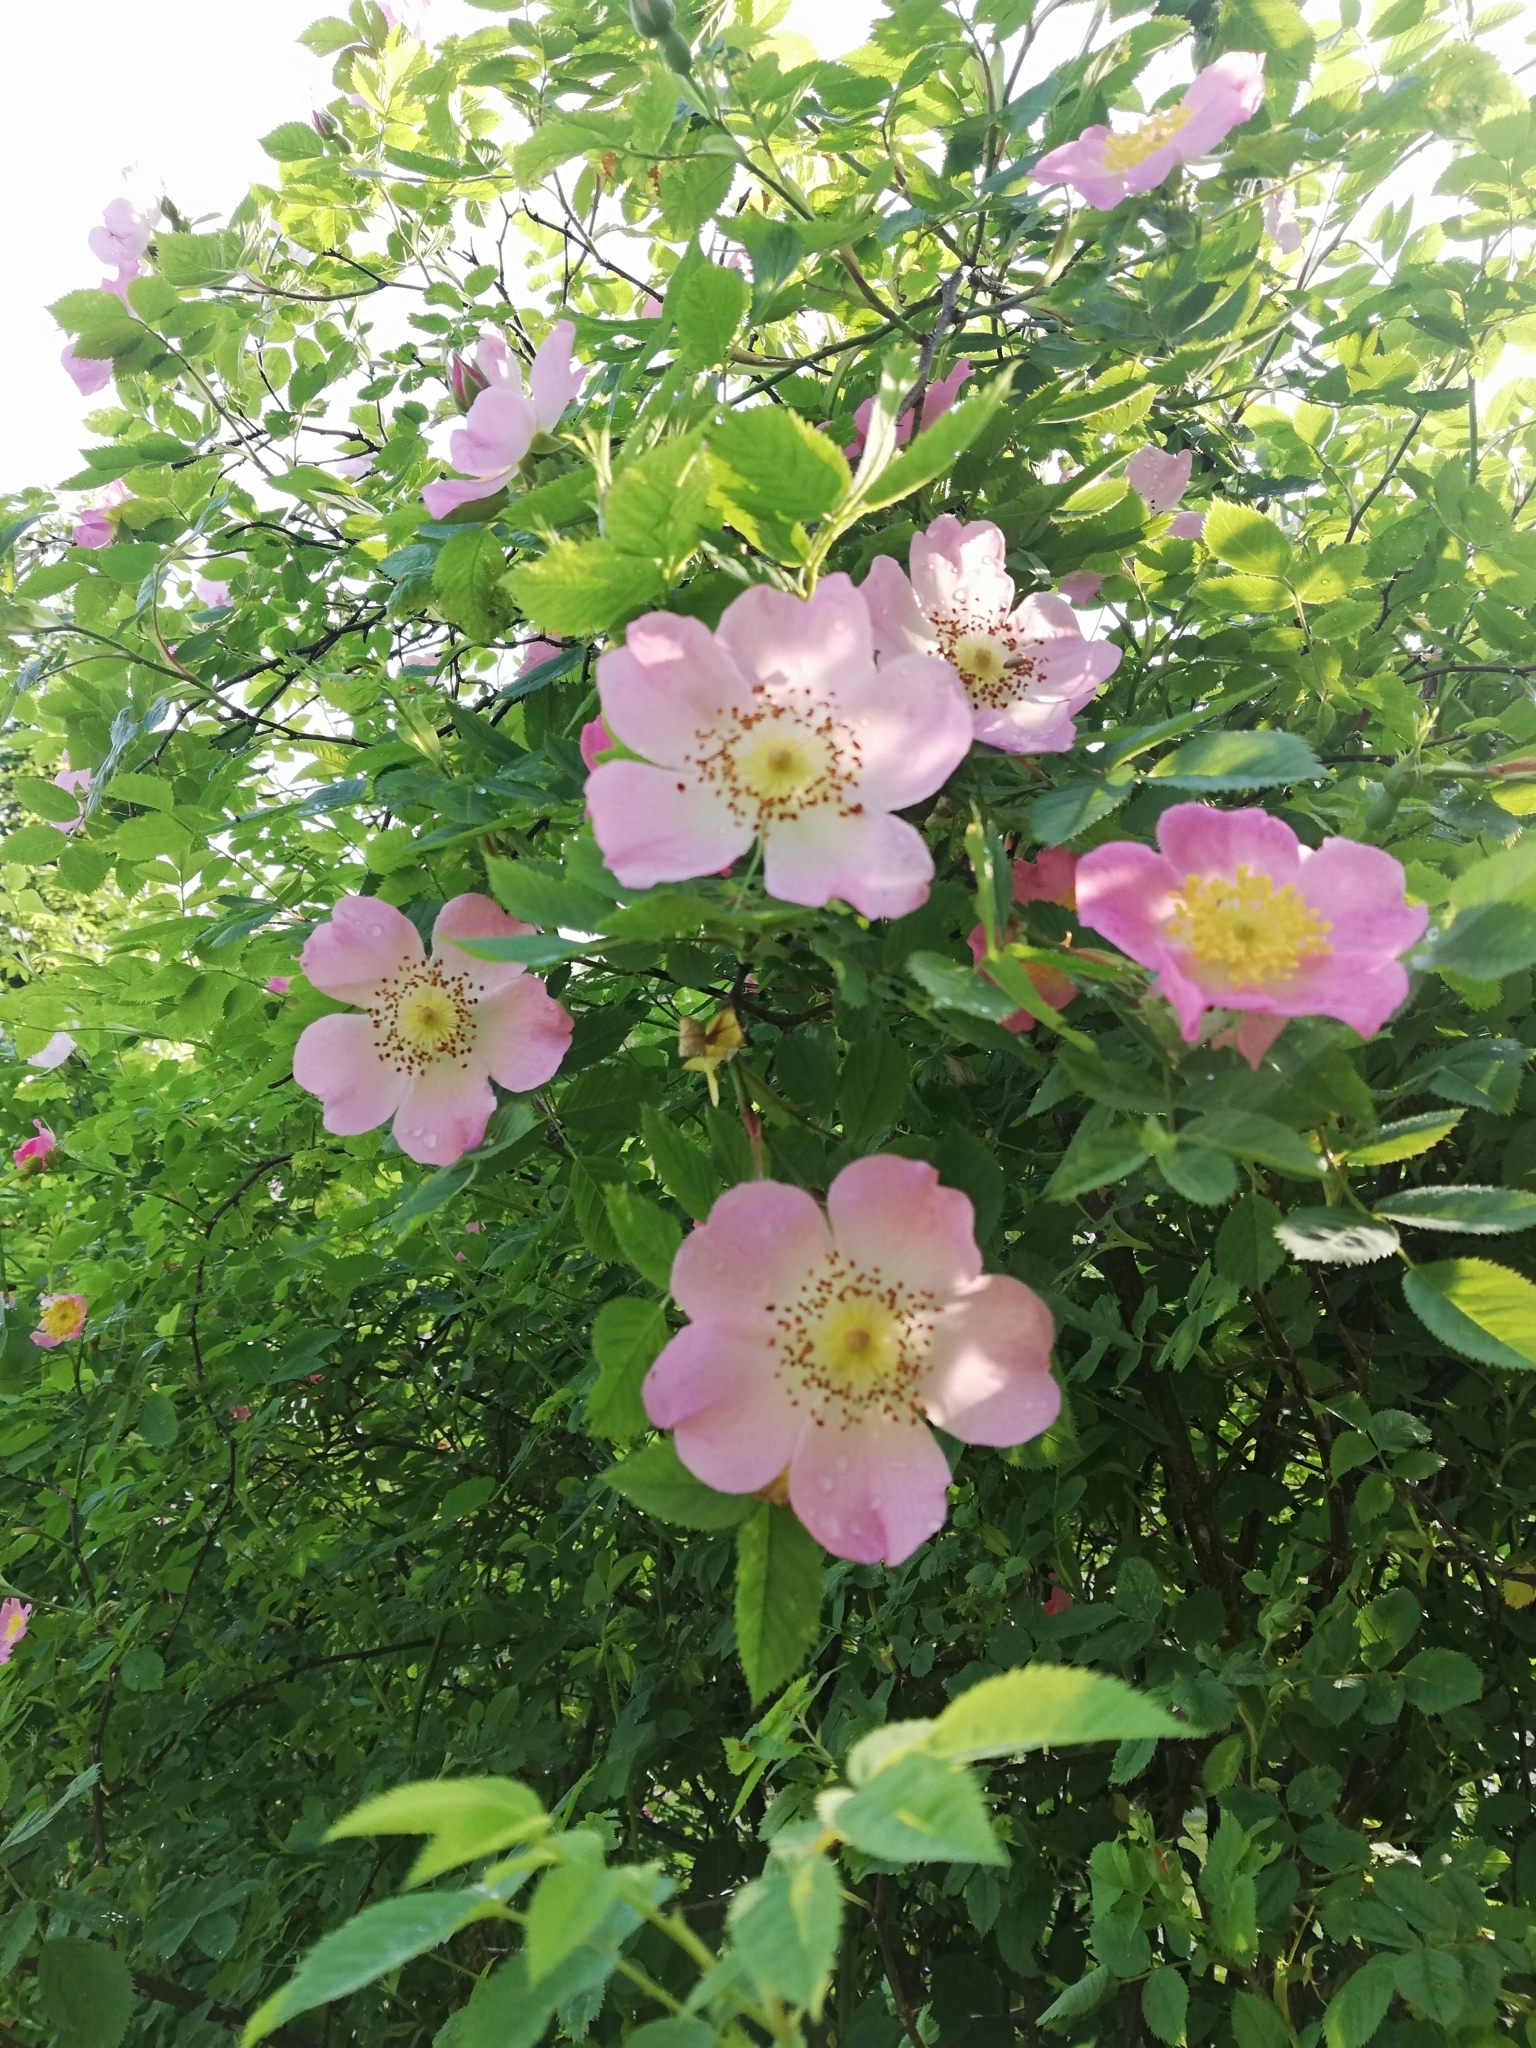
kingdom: Plantae
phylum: Tracheophyta
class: Magnoliopsida
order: Rosales
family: Rosaceae
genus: Rosa
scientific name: Rosa
